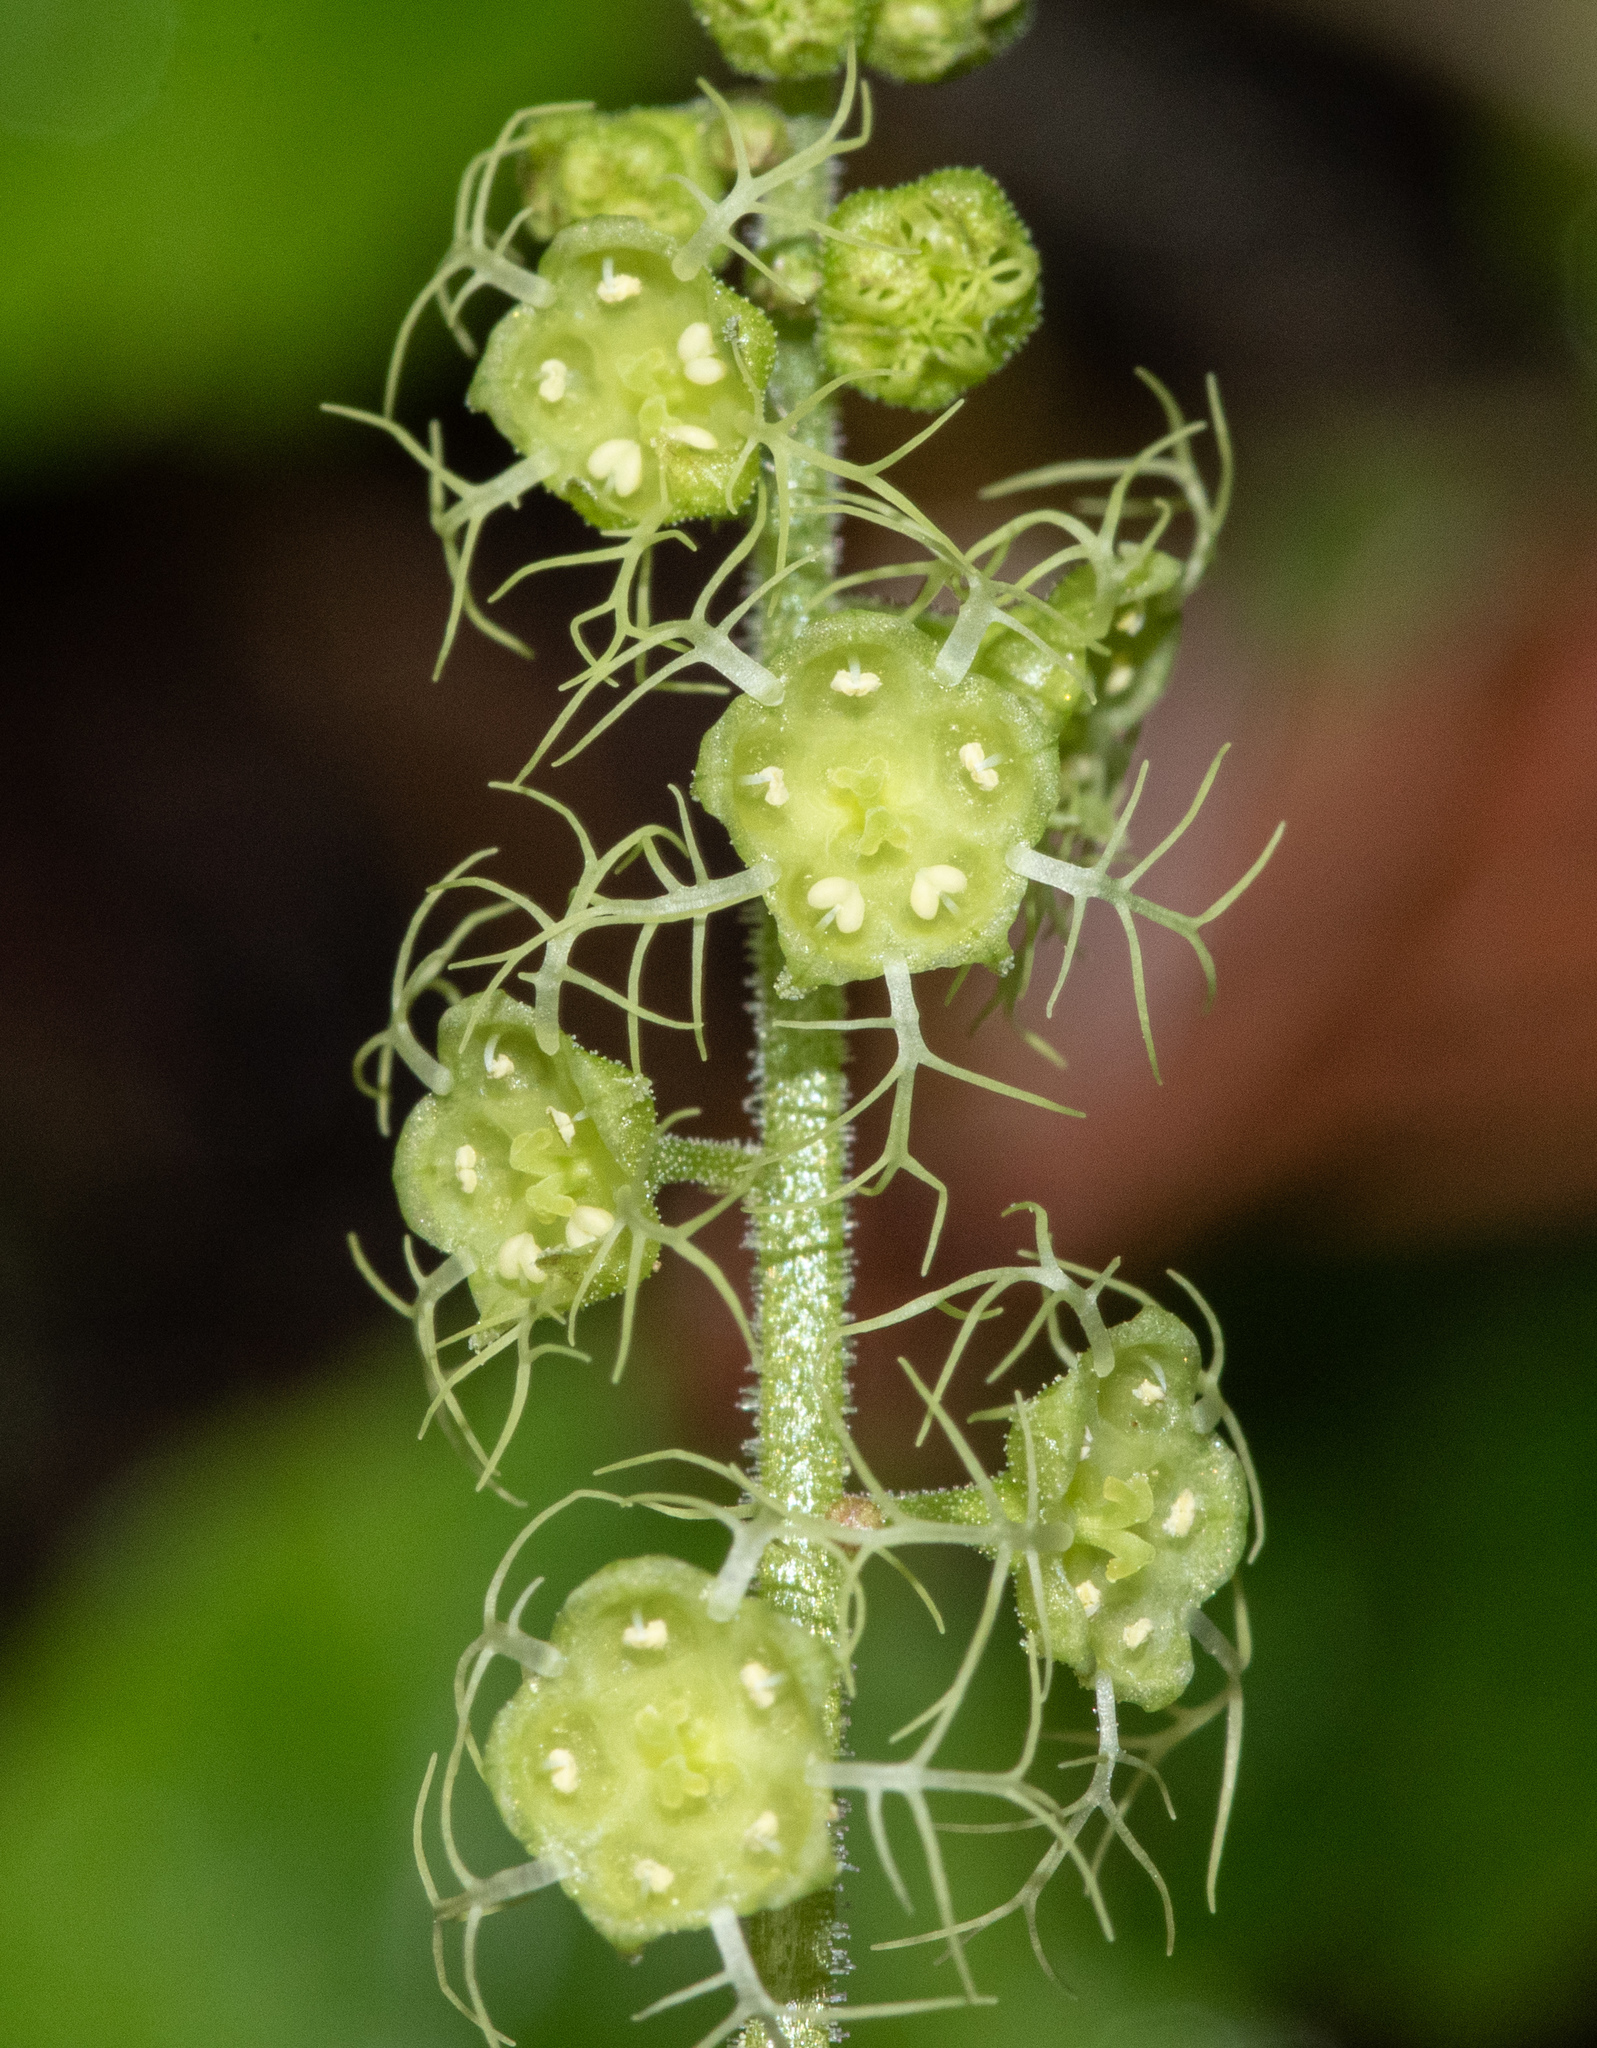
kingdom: Plantae
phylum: Tracheophyta
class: Magnoliopsida
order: Saxifragales
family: Saxifragaceae
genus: Brewerimitella
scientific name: Brewerimitella ovalis
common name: Coastal bishop's-cap
